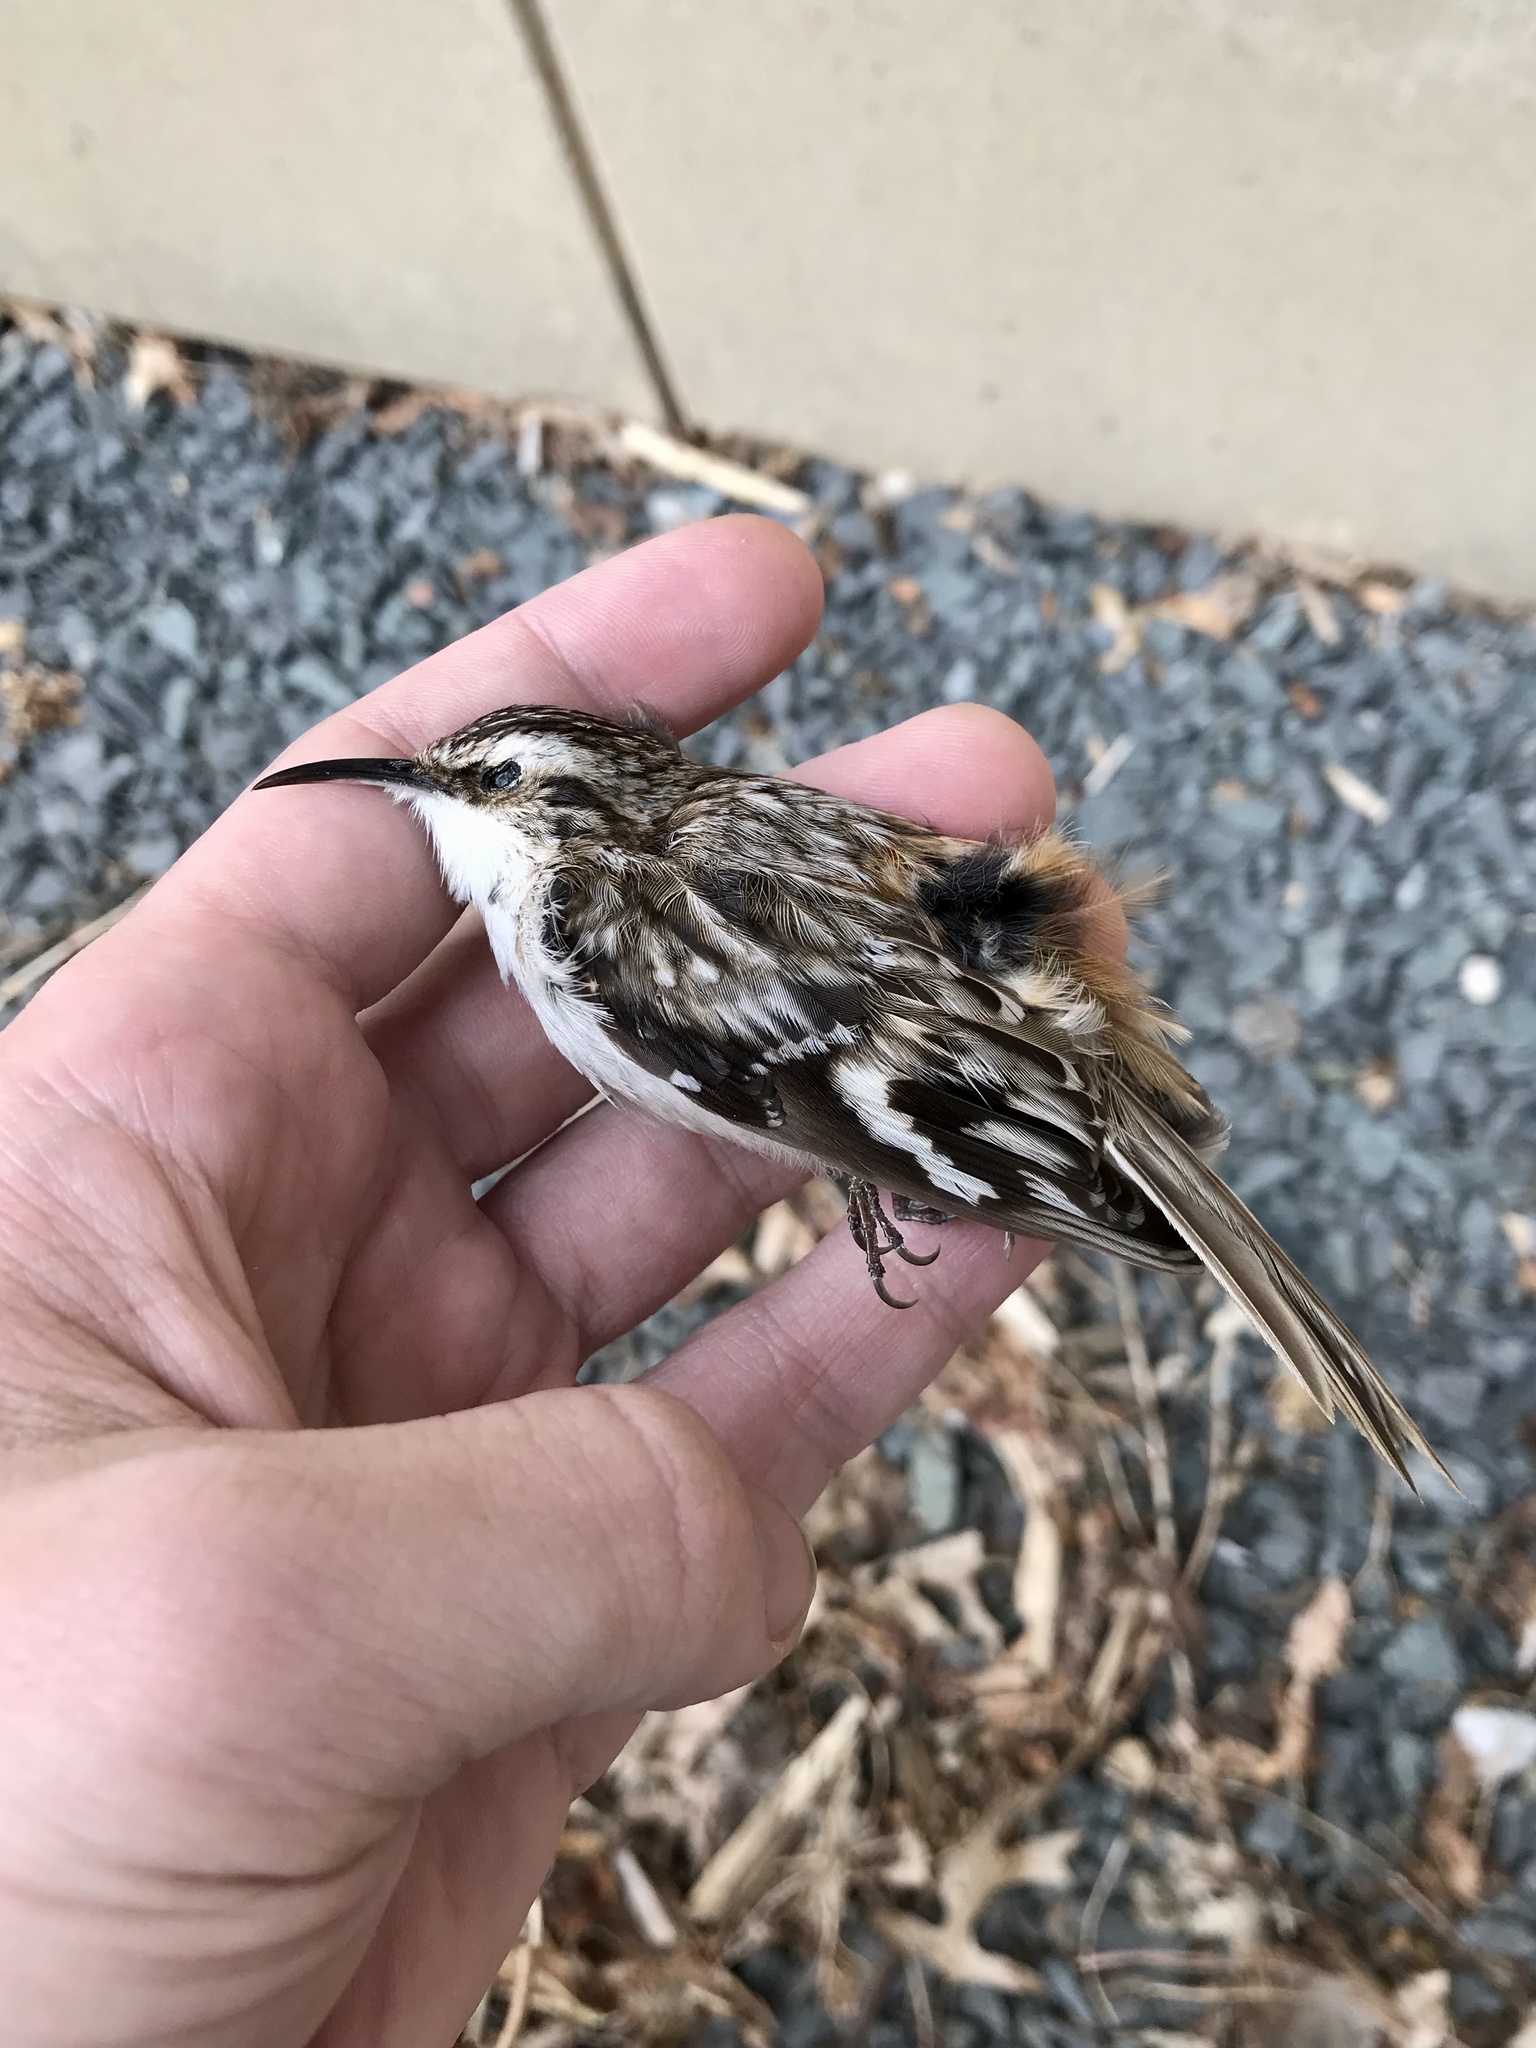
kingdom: Animalia
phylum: Chordata
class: Aves
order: Passeriformes
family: Certhiidae
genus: Certhia
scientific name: Certhia americana
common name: Brown creeper
